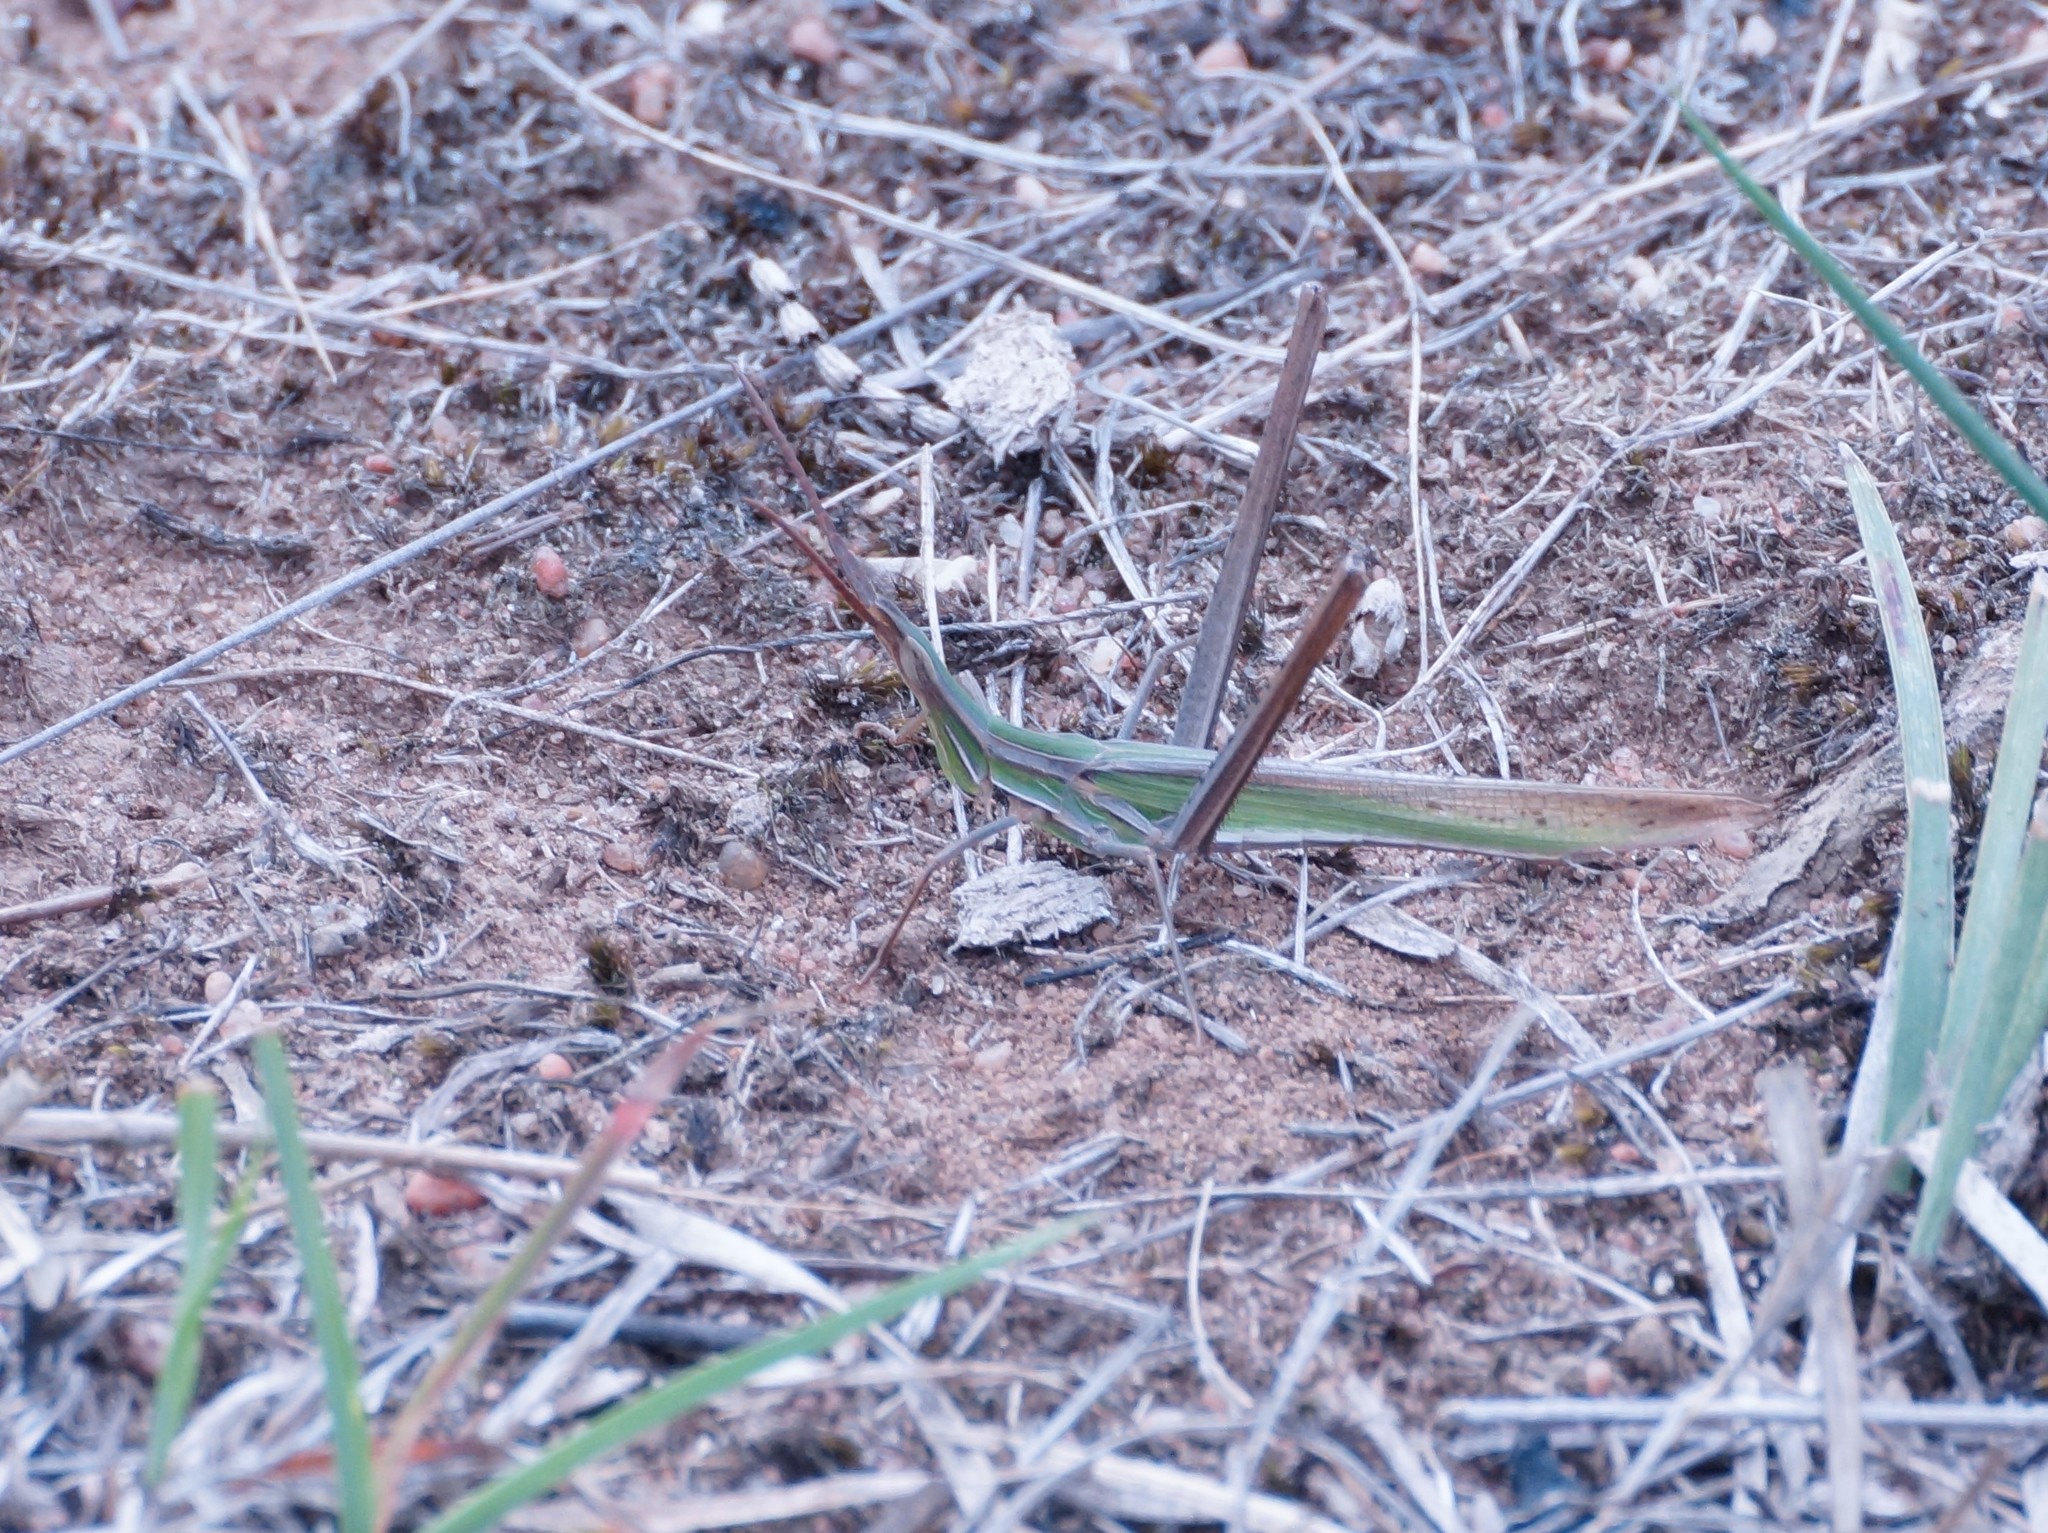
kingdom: Animalia
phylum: Arthropoda
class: Insecta
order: Orthoptera
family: Acrididae
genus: Acrida
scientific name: Acrida conica
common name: Giant green slantface
